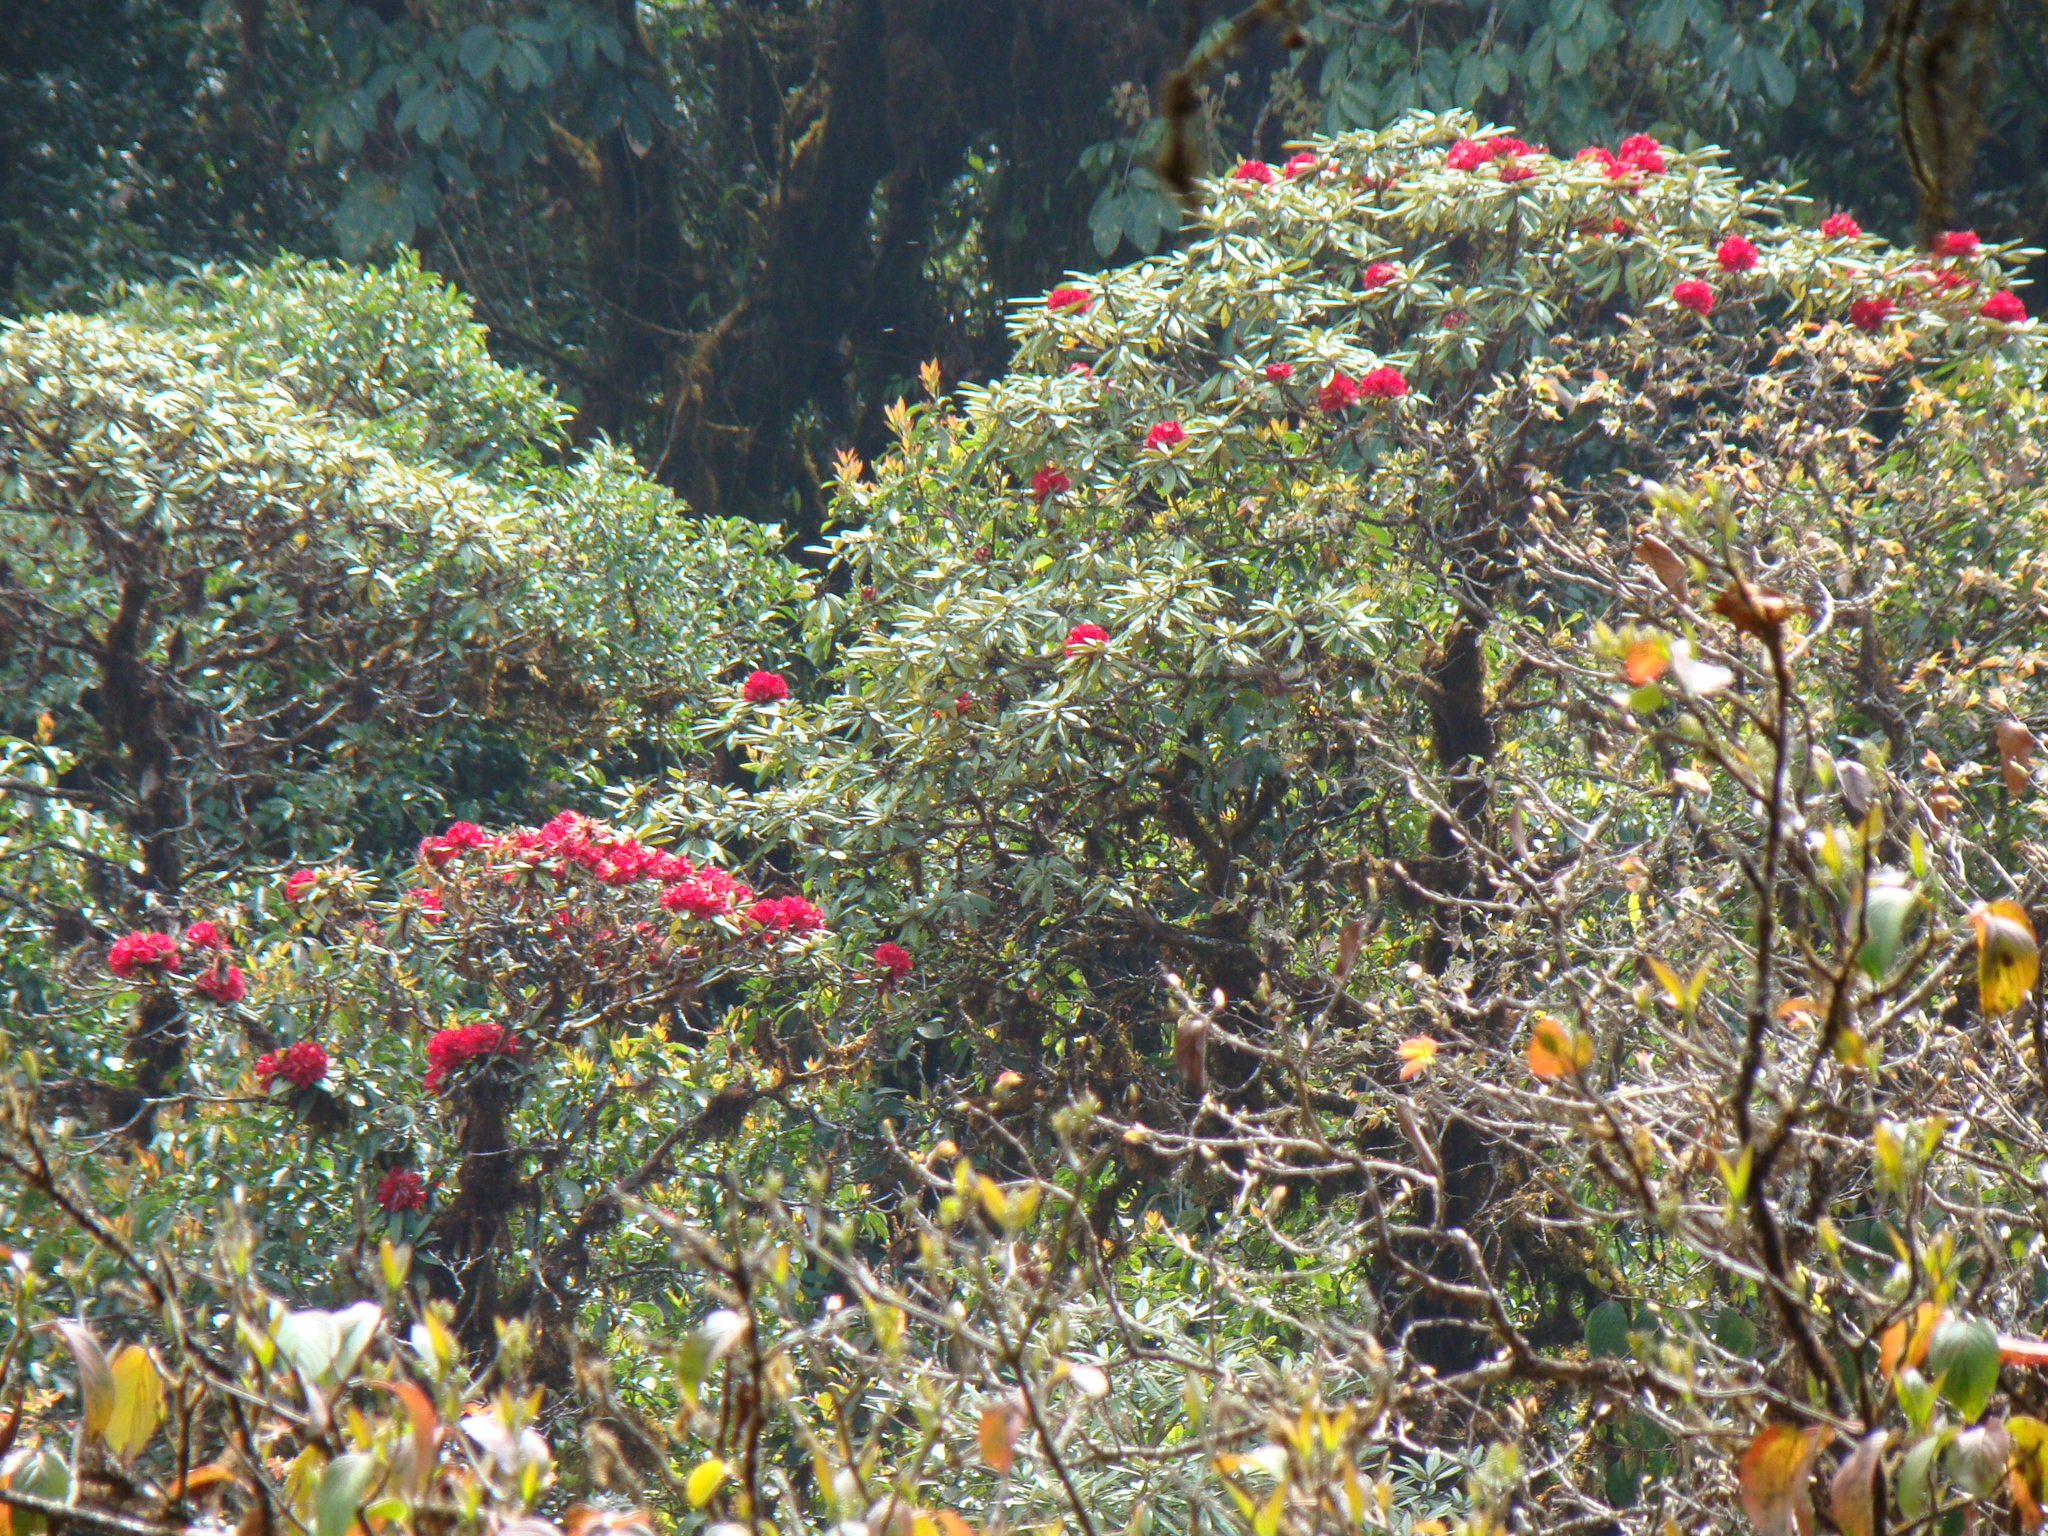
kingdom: Plantae
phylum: Tracheophyta
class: Magnoliopsida
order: Ericales
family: Ericaceae
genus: Rhododendron
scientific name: Rhododendron delavayi
